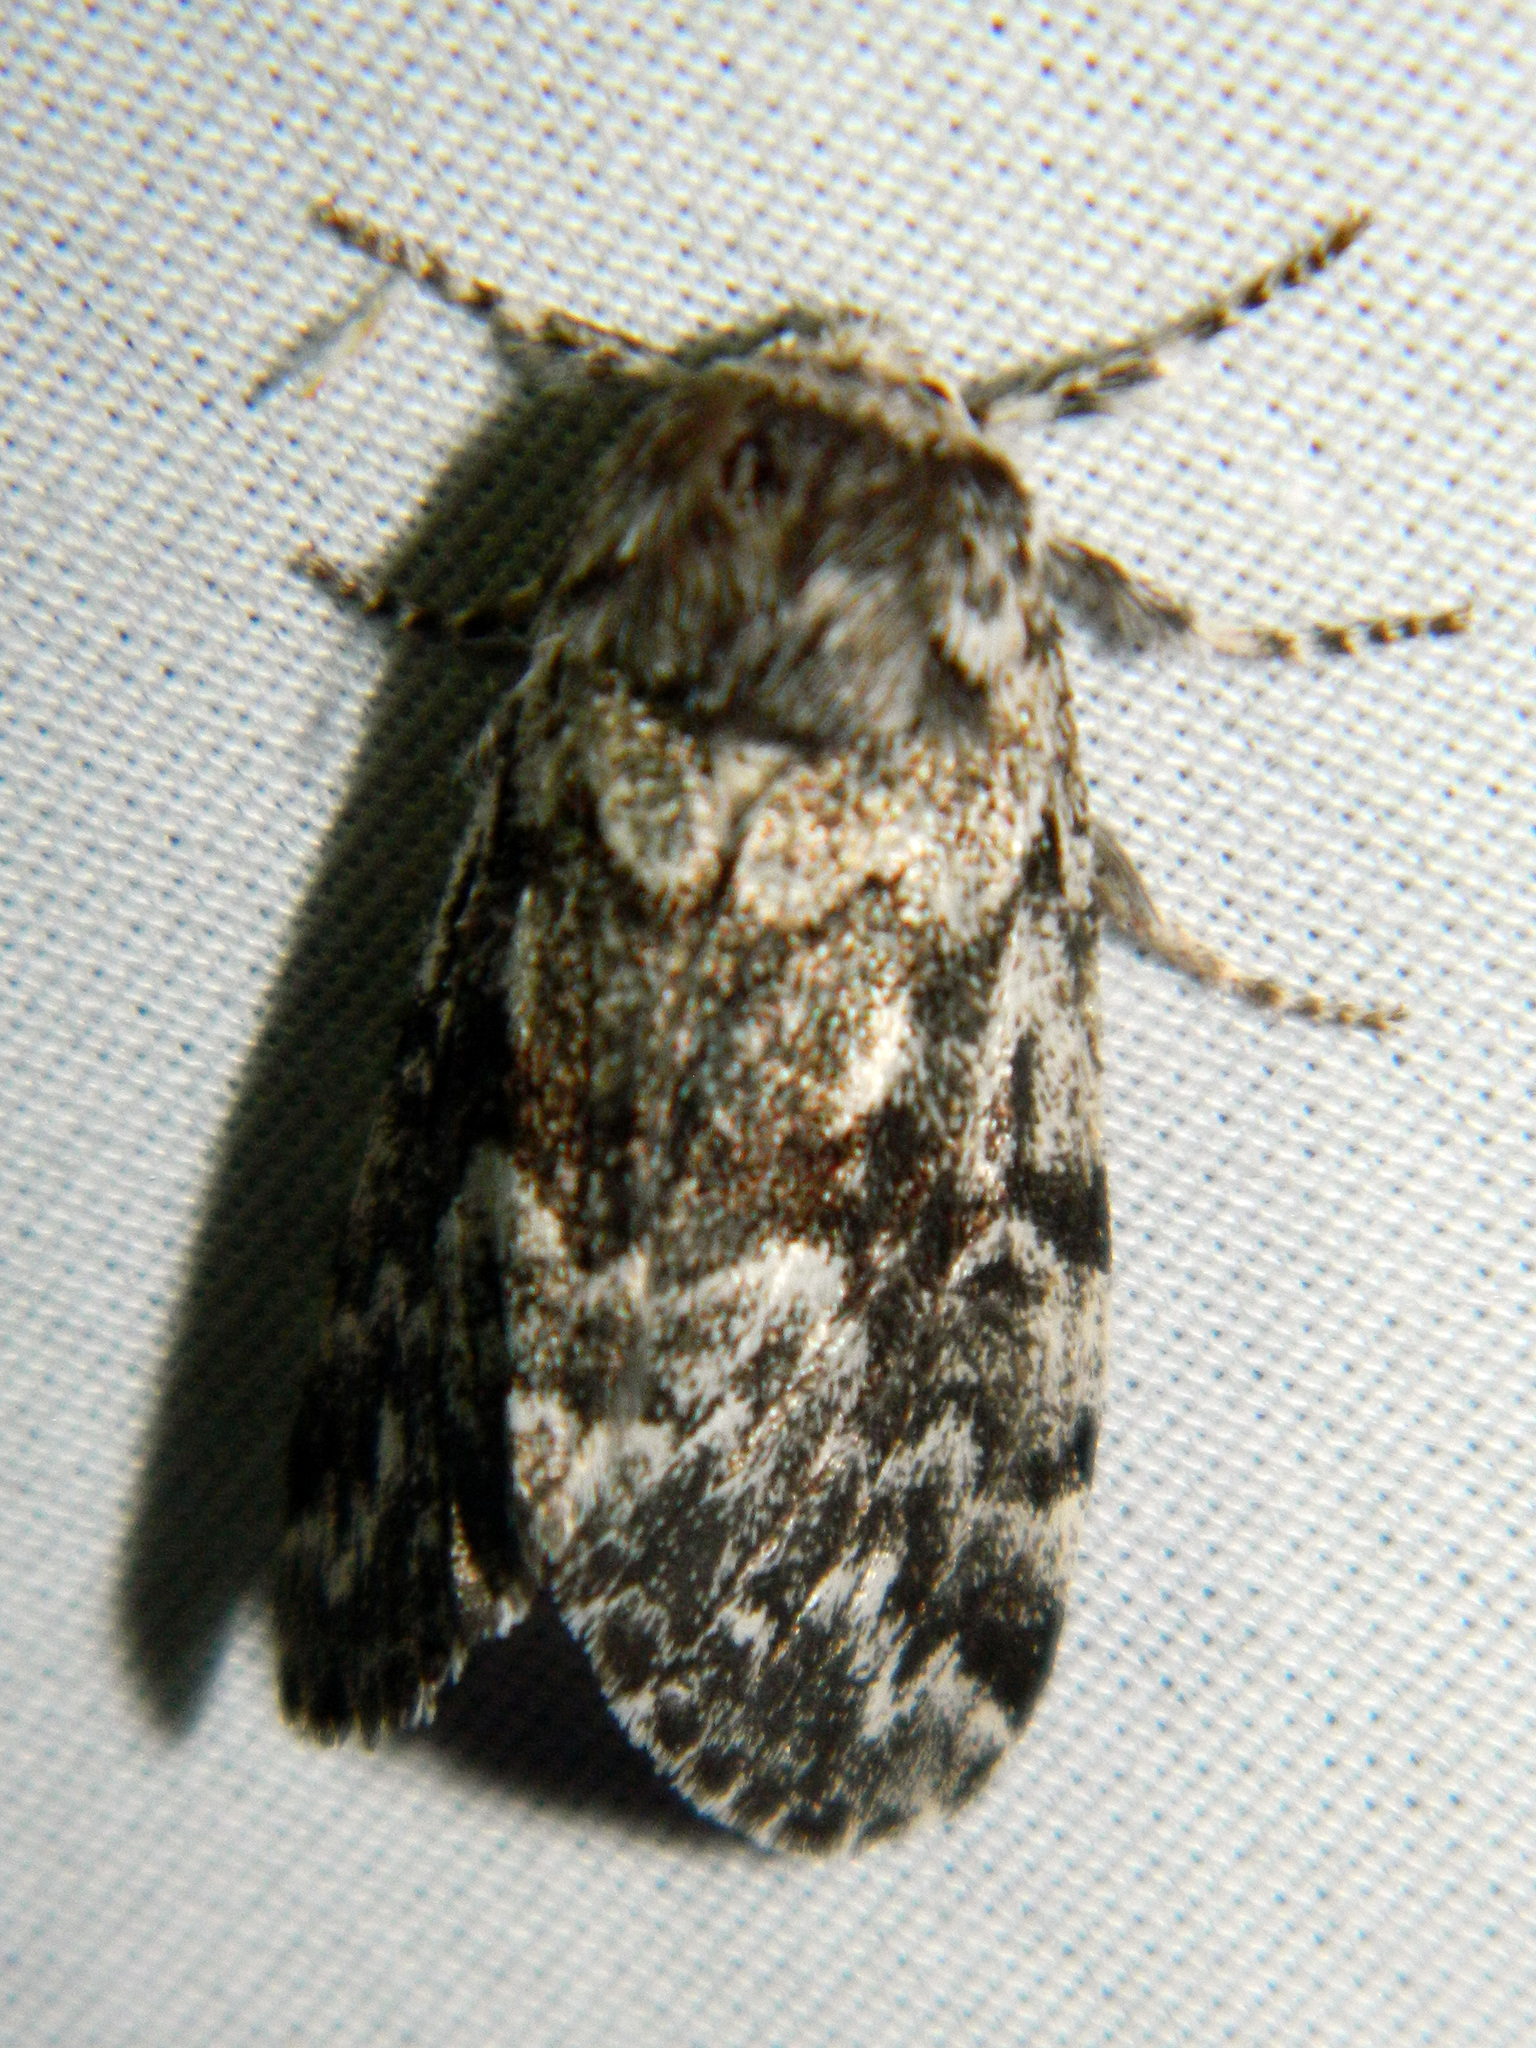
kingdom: Animalia
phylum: Arthropoda
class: Insecta
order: Lepidoptera
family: Noctuidae
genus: Panthea
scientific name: Panthea acronyctoides
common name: Black zigzag moth
